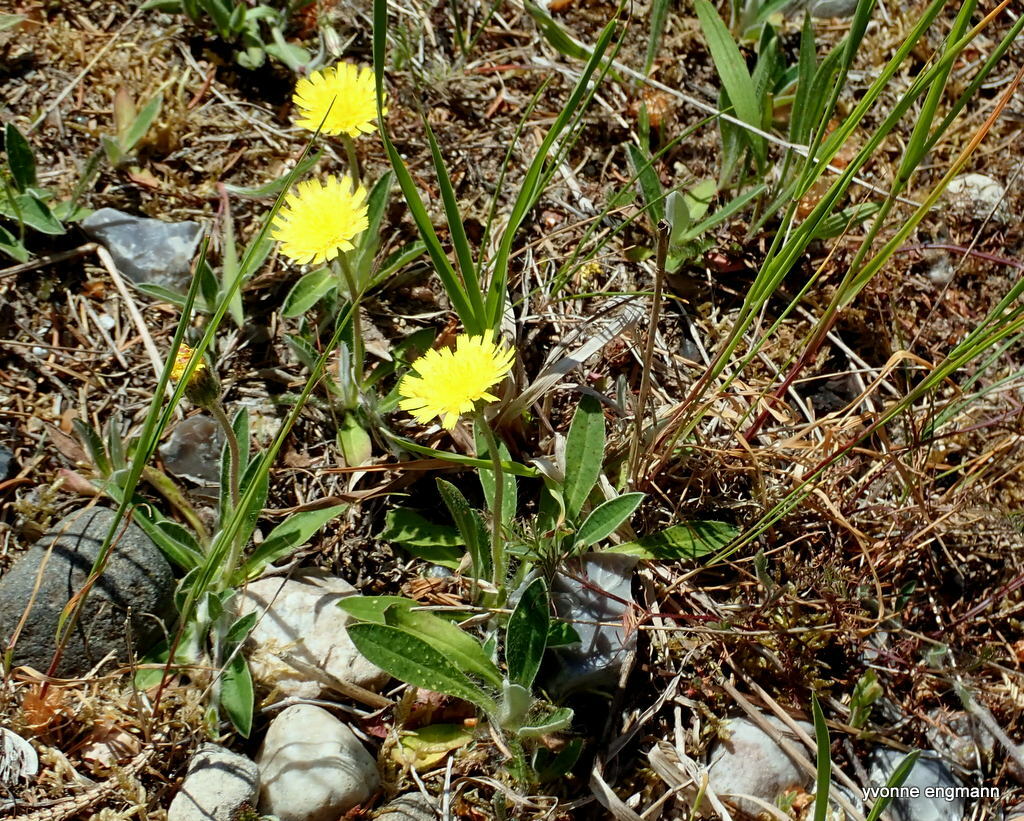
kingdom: Plantae
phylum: Tracheophyta
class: Magnoliopsida
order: Asterales
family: Asteraceae
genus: Pilosella
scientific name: Pilosella officinarum
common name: Mouse-ear hawkweed
